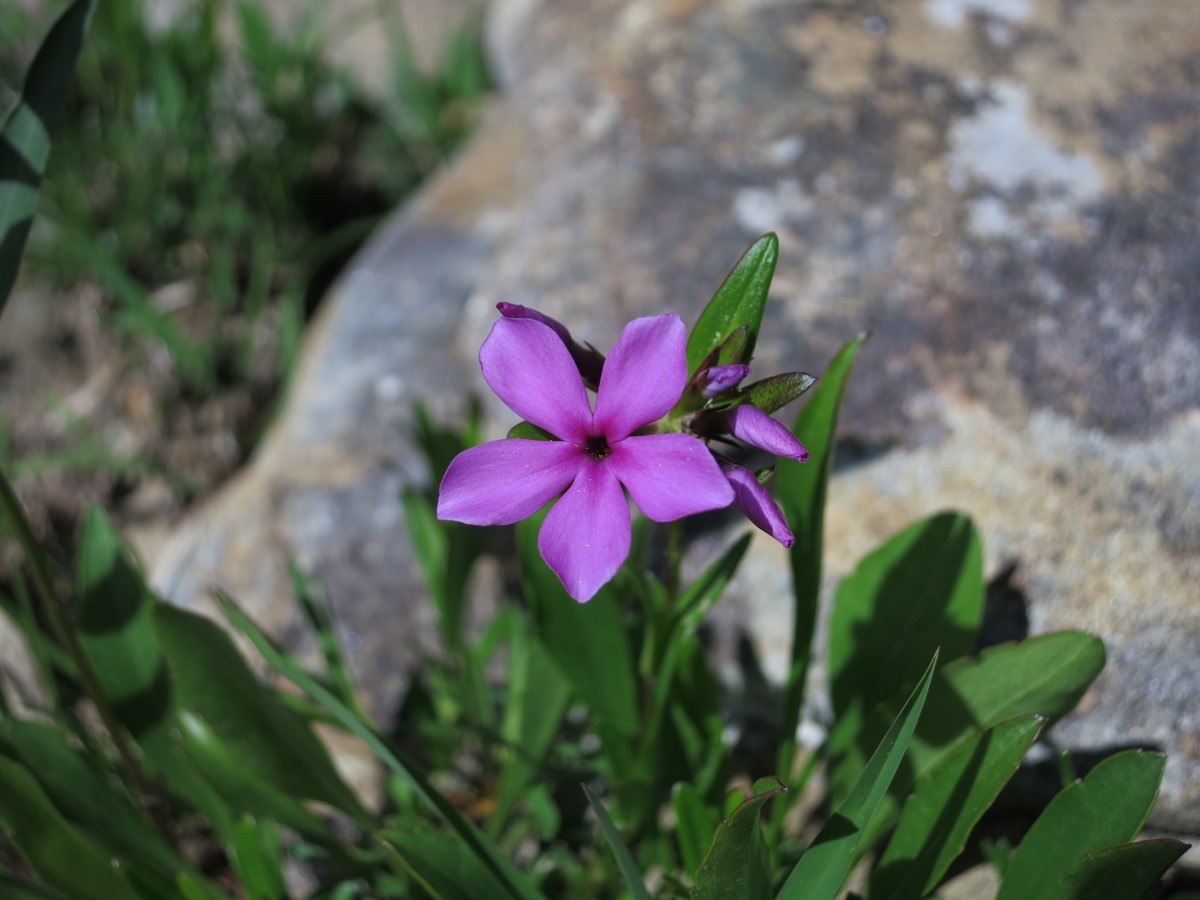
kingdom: Plantae
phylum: Tracheophyta
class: Magnoliopsida
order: Ericales
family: Polemoniaceae
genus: Phlox
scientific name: Phlox amoena
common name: Hairy phlox
